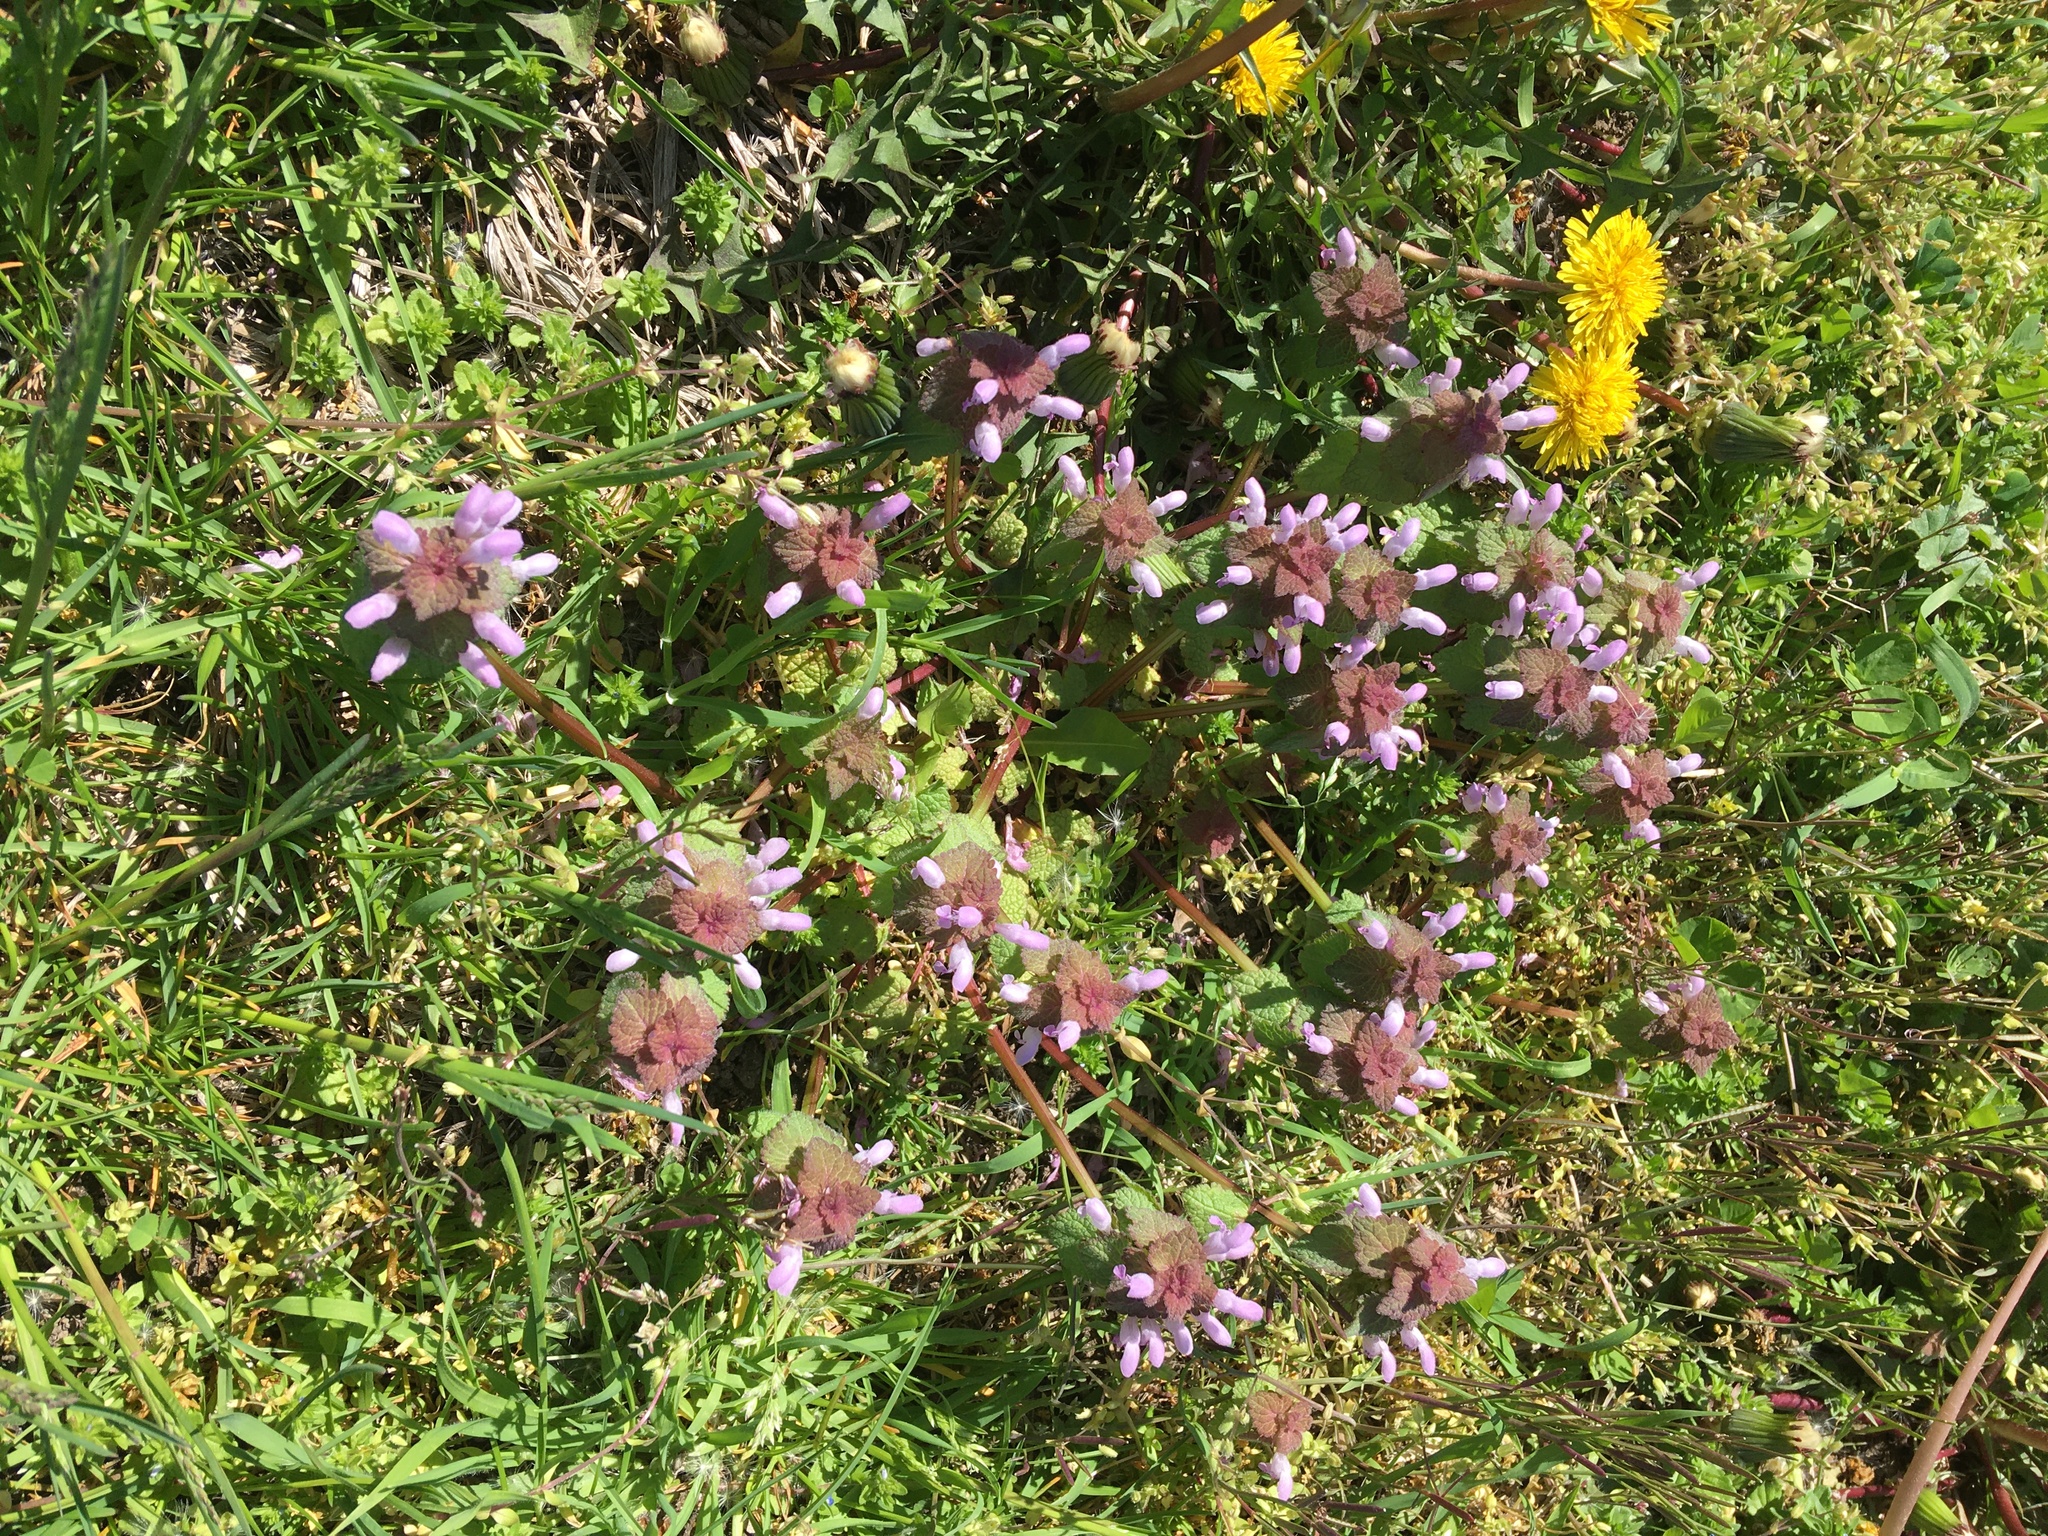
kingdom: Plantae
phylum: Tracheophyta
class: Magnoliopsida
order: Lamiales
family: Lamiaceae
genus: Lamium
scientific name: Lamium purpureum
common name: Red dead-nettle
